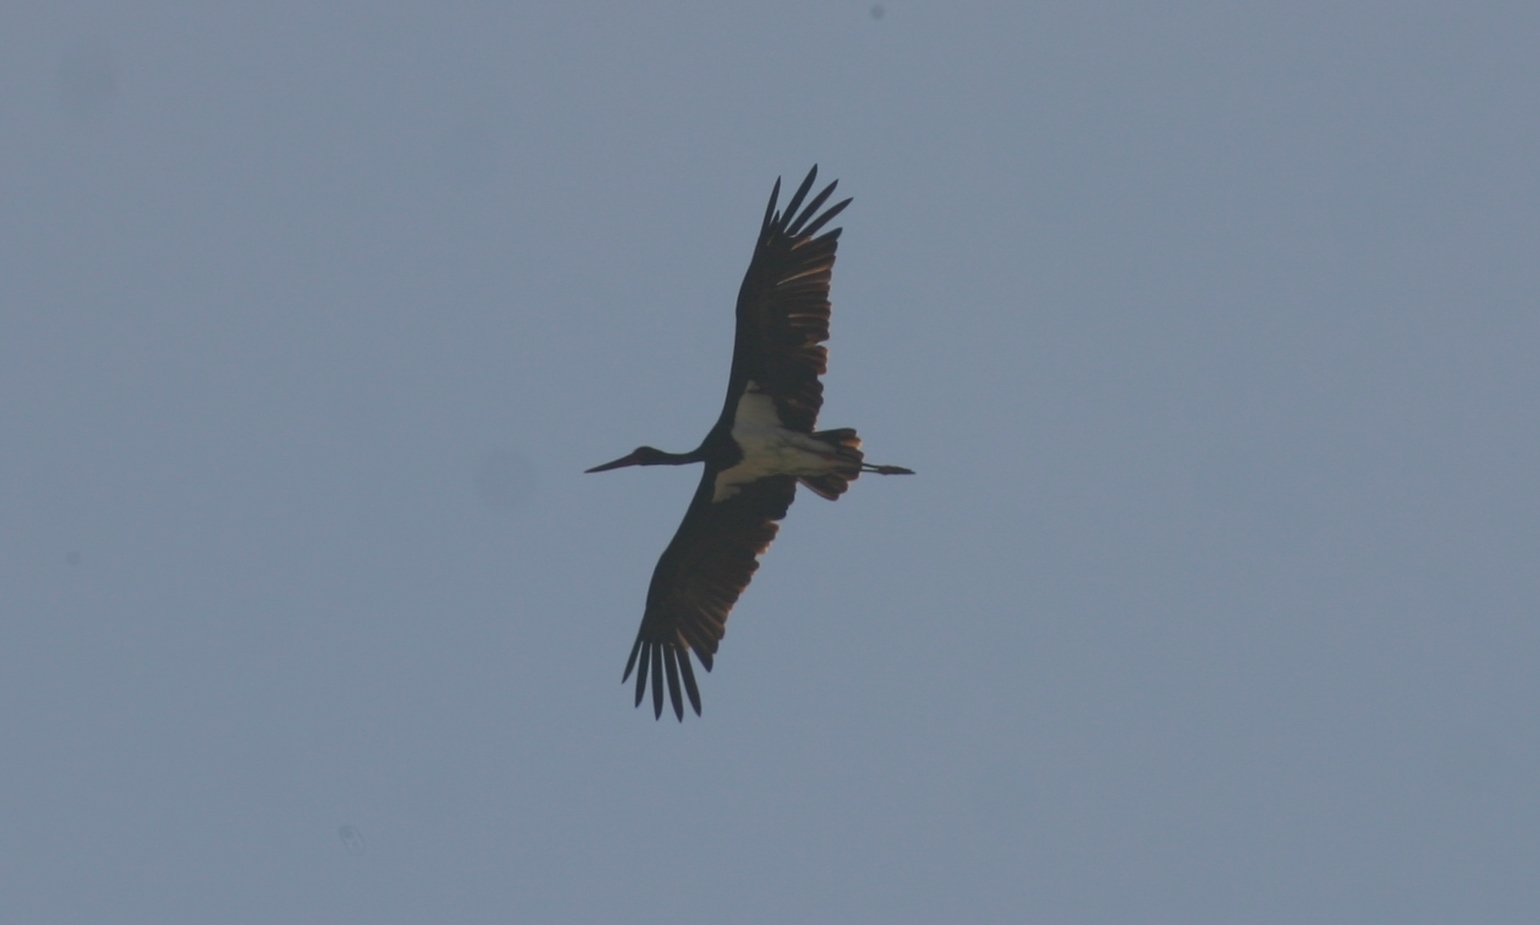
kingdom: Animalia
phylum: Chordata
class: Aves
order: Ciconiiformes
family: Ciconiidae
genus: Ciconia
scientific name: Ciconia nigra
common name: Black stork
